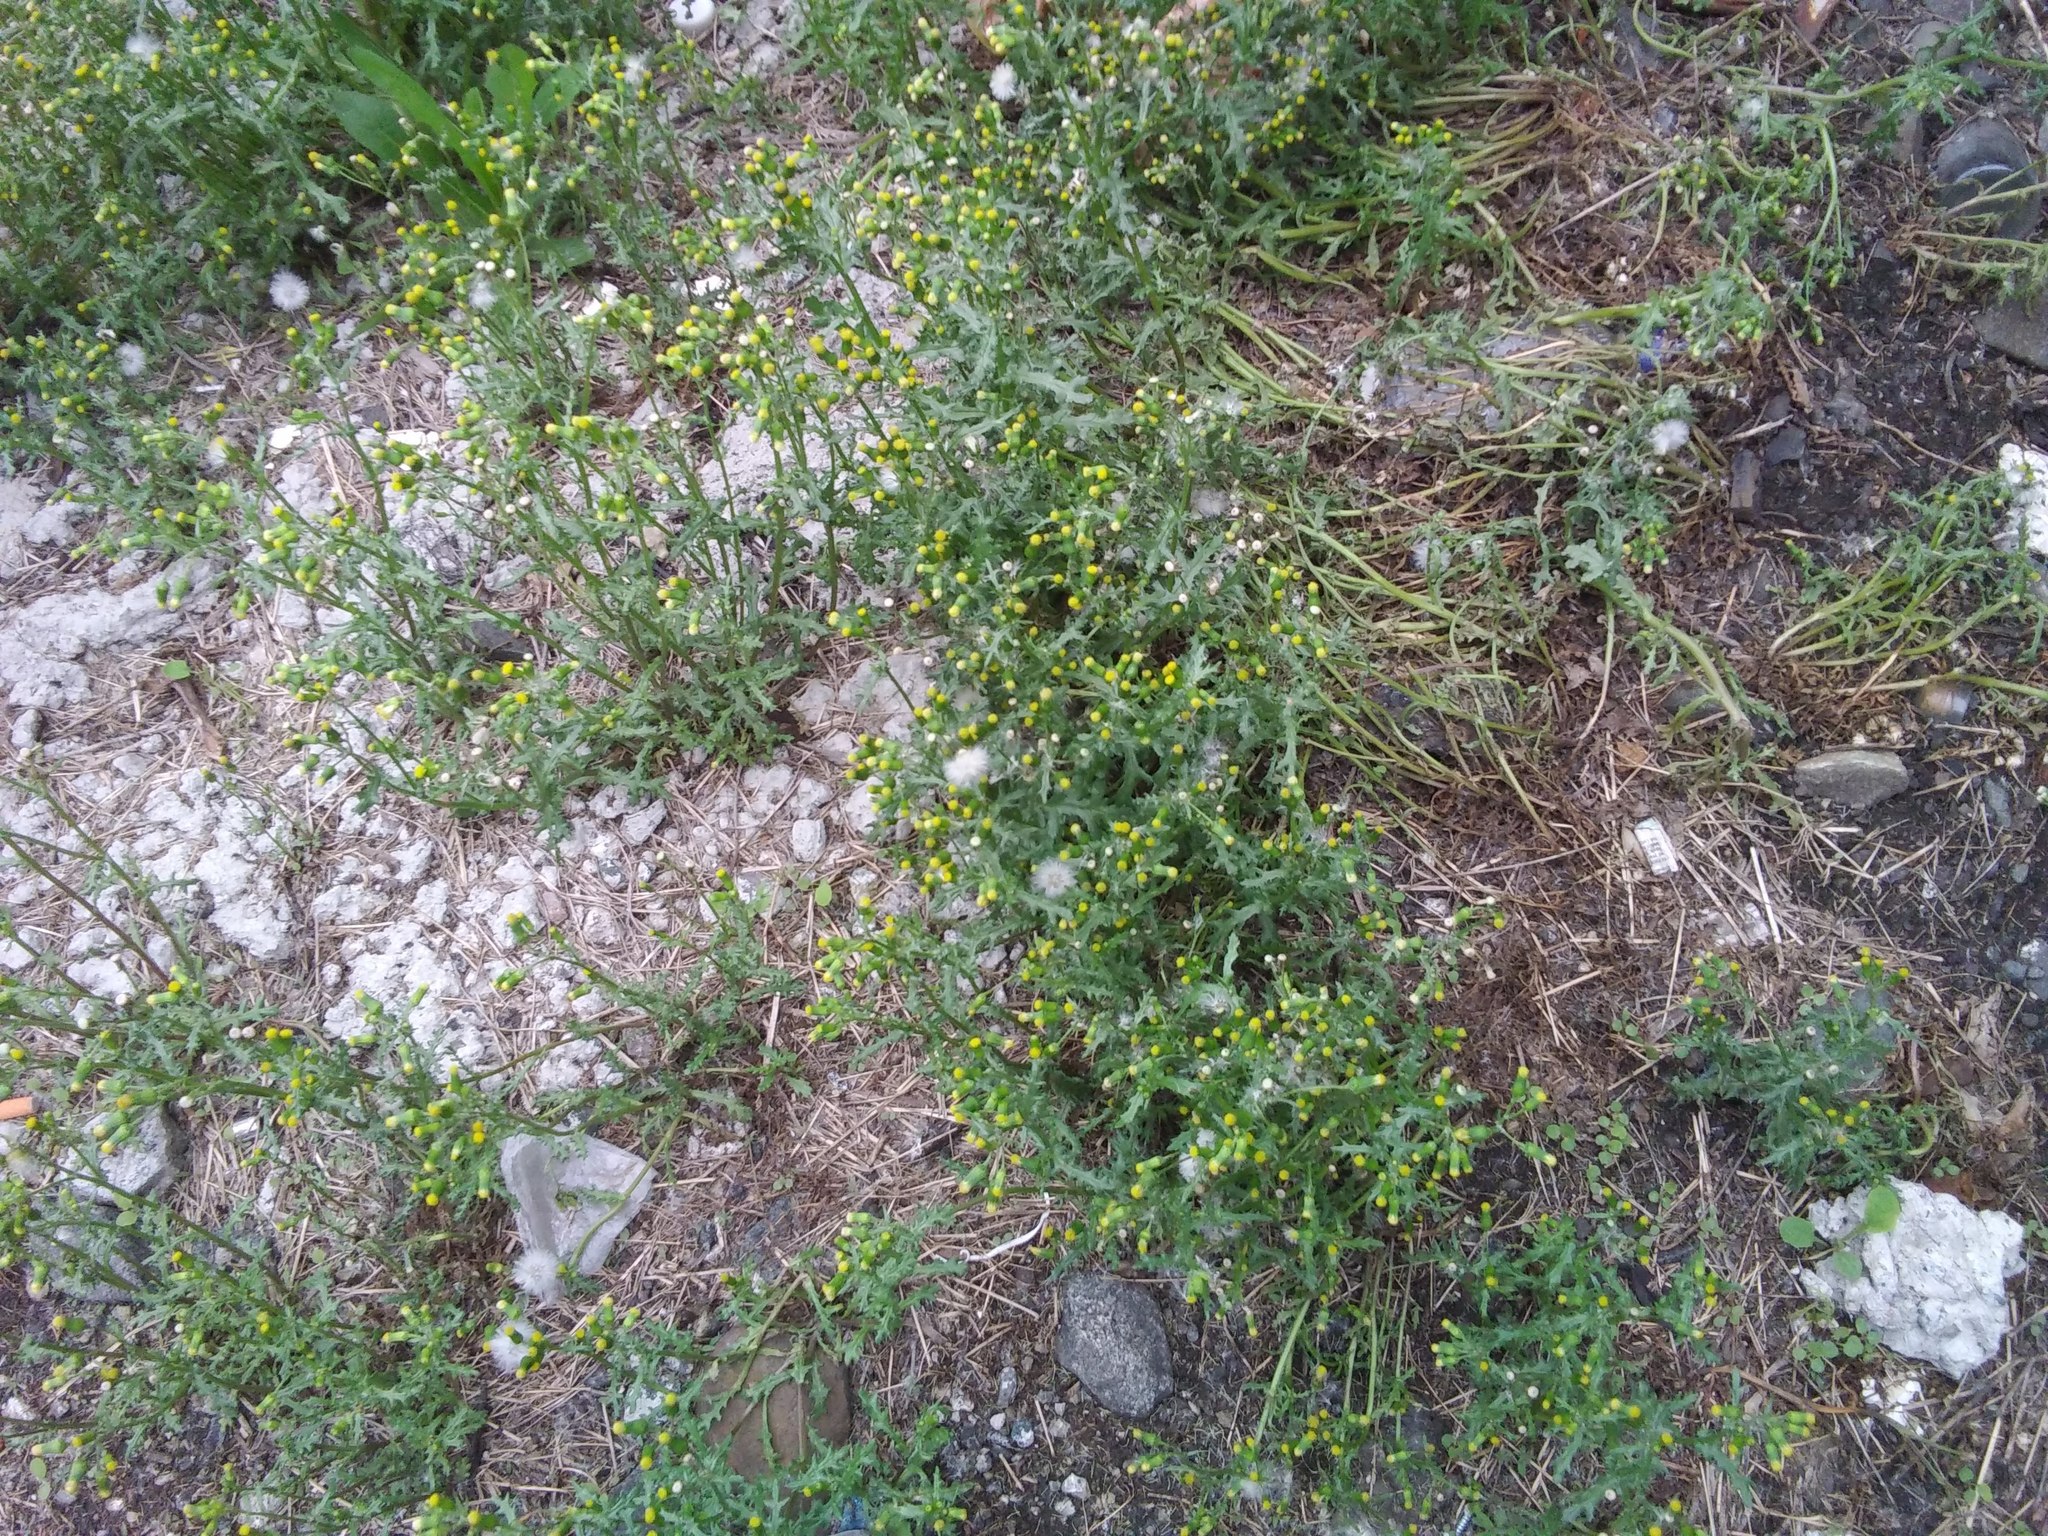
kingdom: Plantae
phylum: Tracheophyta
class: Magnoliopsida
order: Asterales
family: Asteraceae
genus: Senecio
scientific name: Senecio vulgaris
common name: Old-man-in-the-spring
